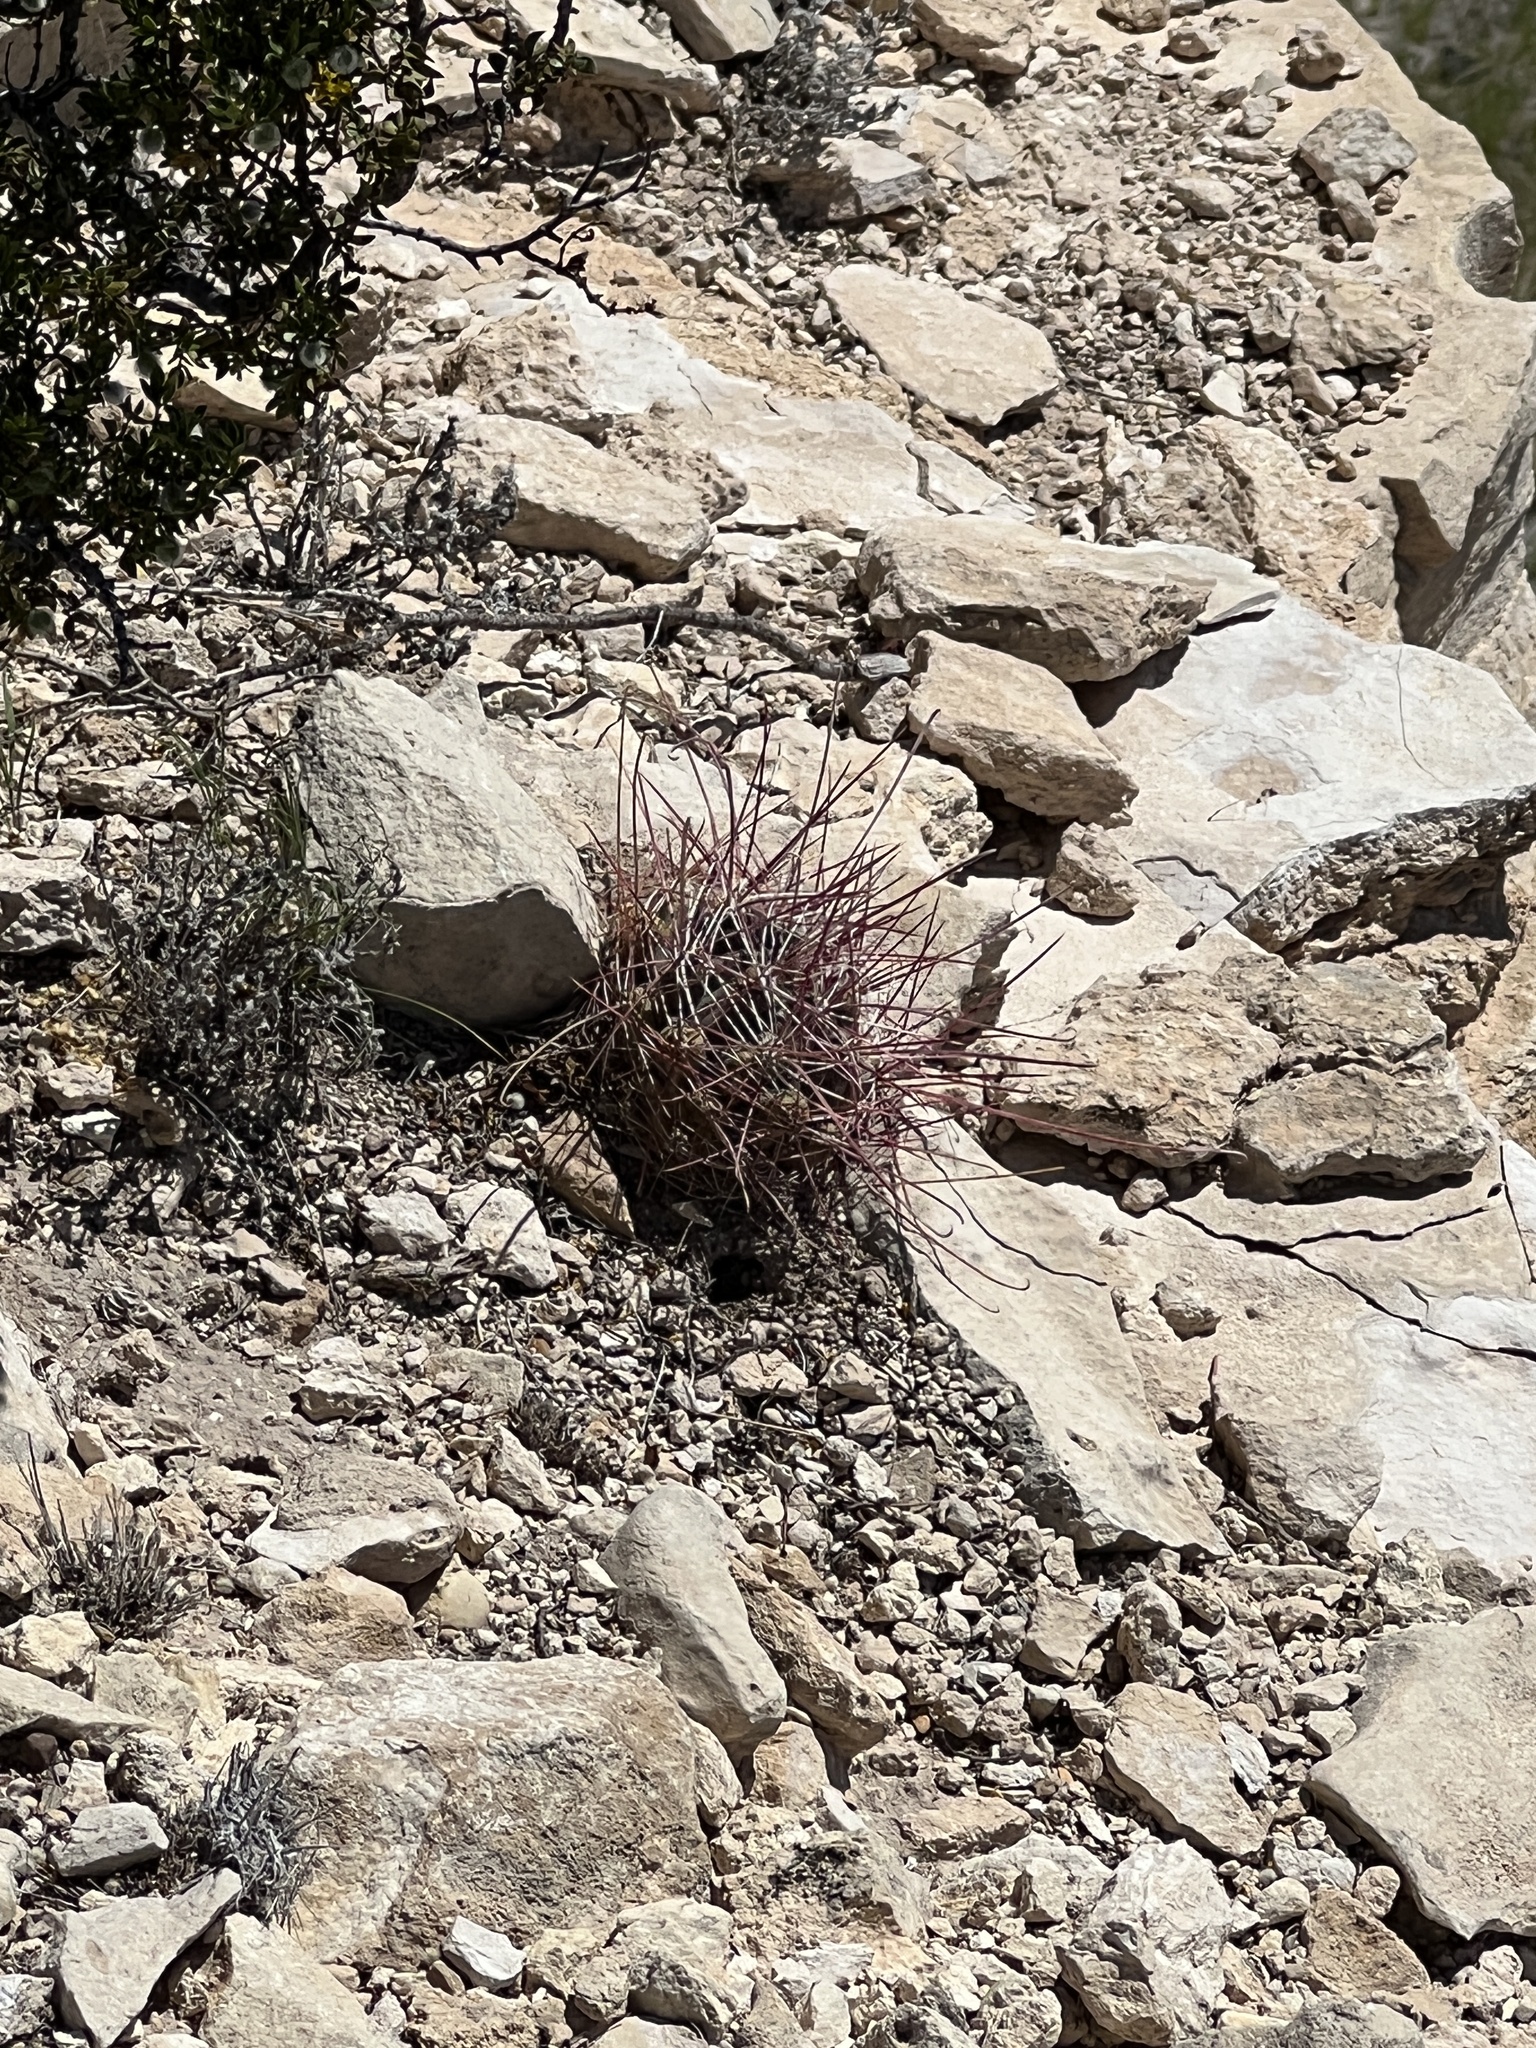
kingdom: Plantae
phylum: Tracheophyta
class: Magnoliopsida
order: Caryophyllales
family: Cactaceae
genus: Bisnaga
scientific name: Bisnaga hamatacantha
